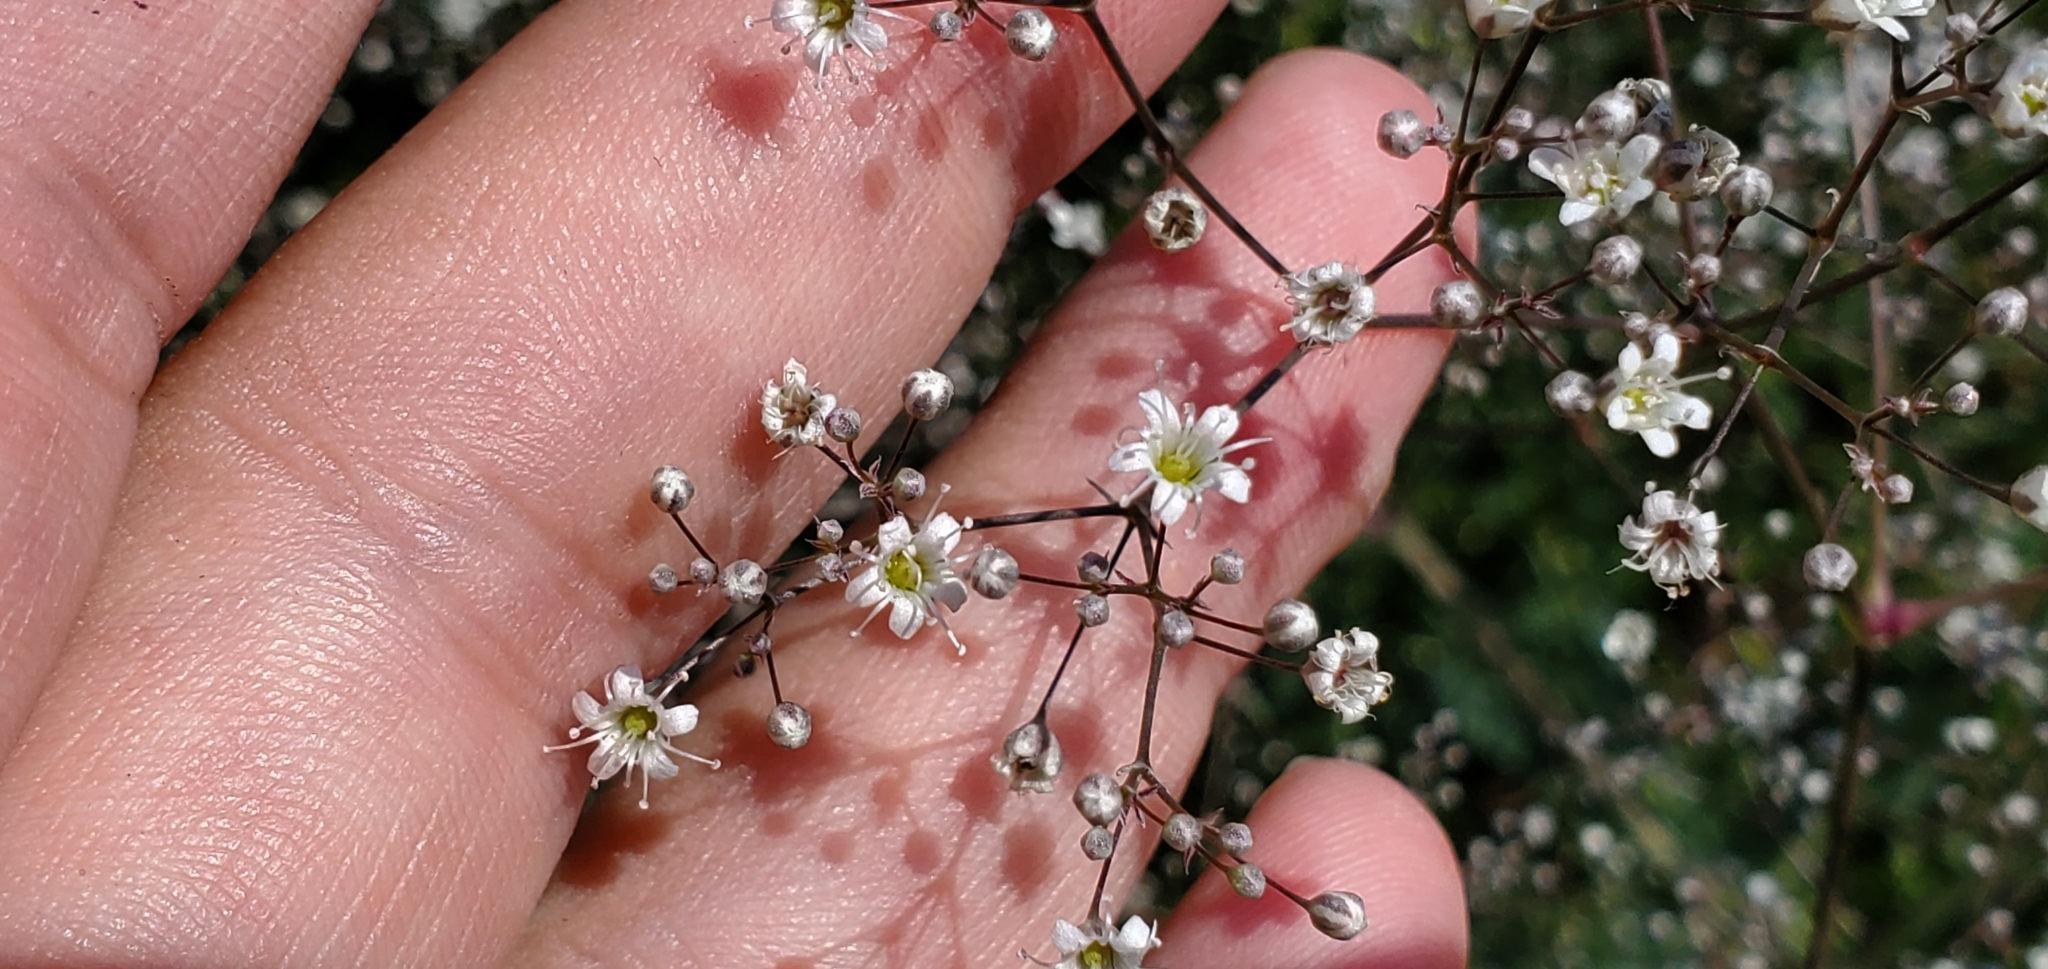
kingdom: Plantae
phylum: Tracheophyta
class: Magnoliopsida
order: Caryophyllales
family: Caryophyllaceae
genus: Gypsophila
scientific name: Gypsophila paniculata
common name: Baby's-breath
